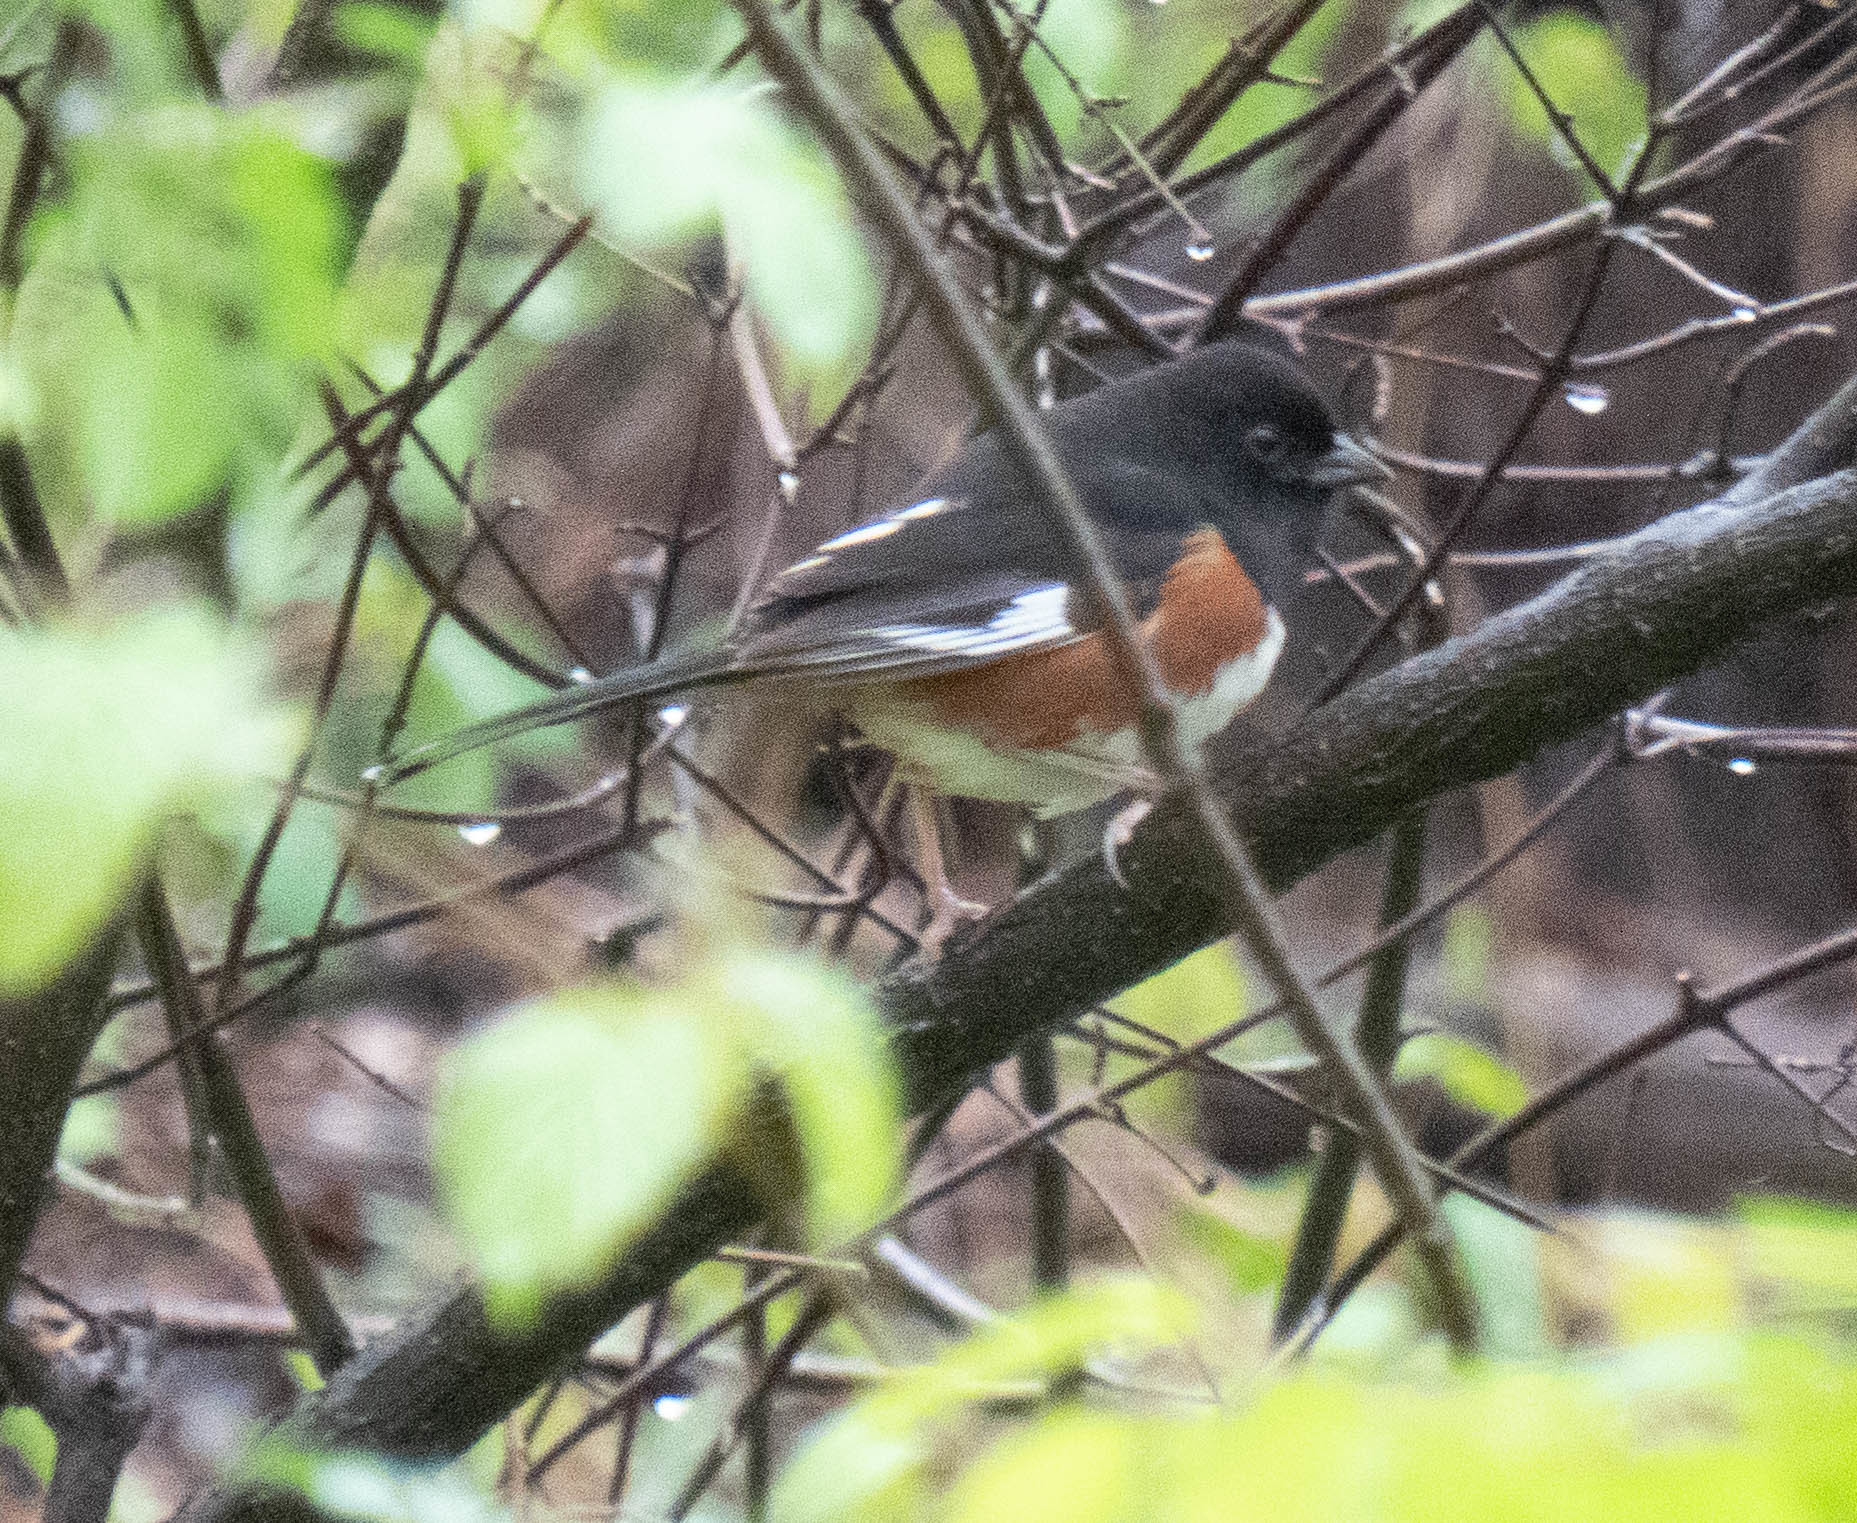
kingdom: Animalia
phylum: Chordata
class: Aves
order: Passeriformes
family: Passerellidae
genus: Pipilo
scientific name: Pipilo erythrophthalmus
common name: Eastern towhee
